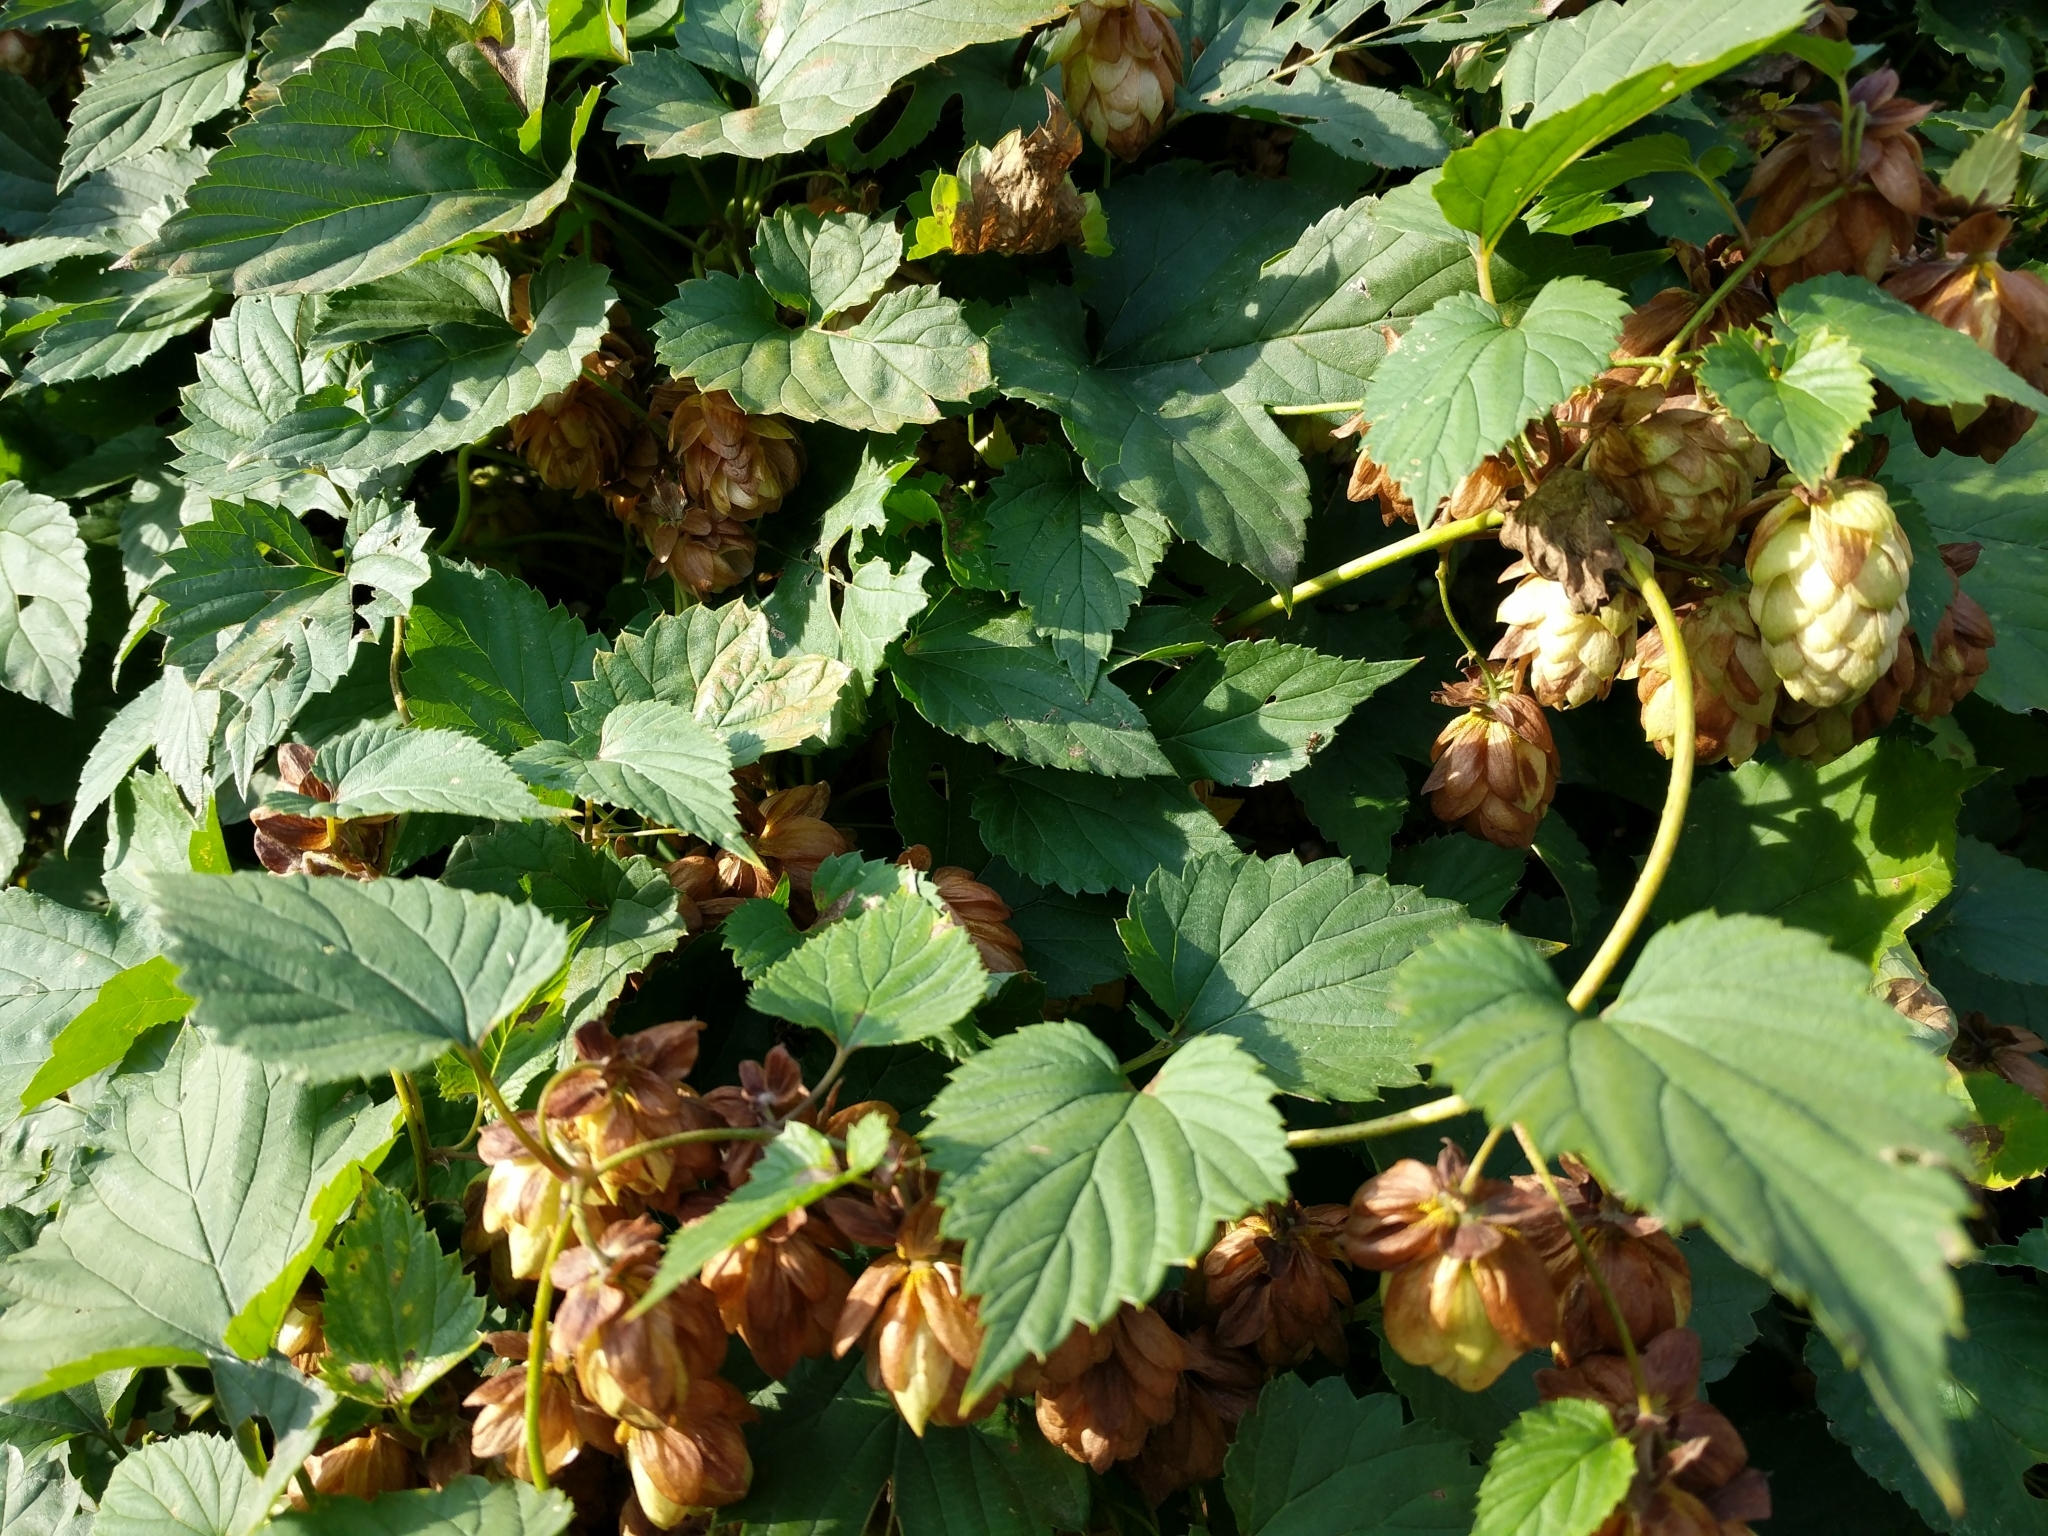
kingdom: Plantae
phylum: Tracheophyta
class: Magnoliopsida
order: Rosales
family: Cannabaceae
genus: Humulus
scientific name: Humulus lupulus
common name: Hop
